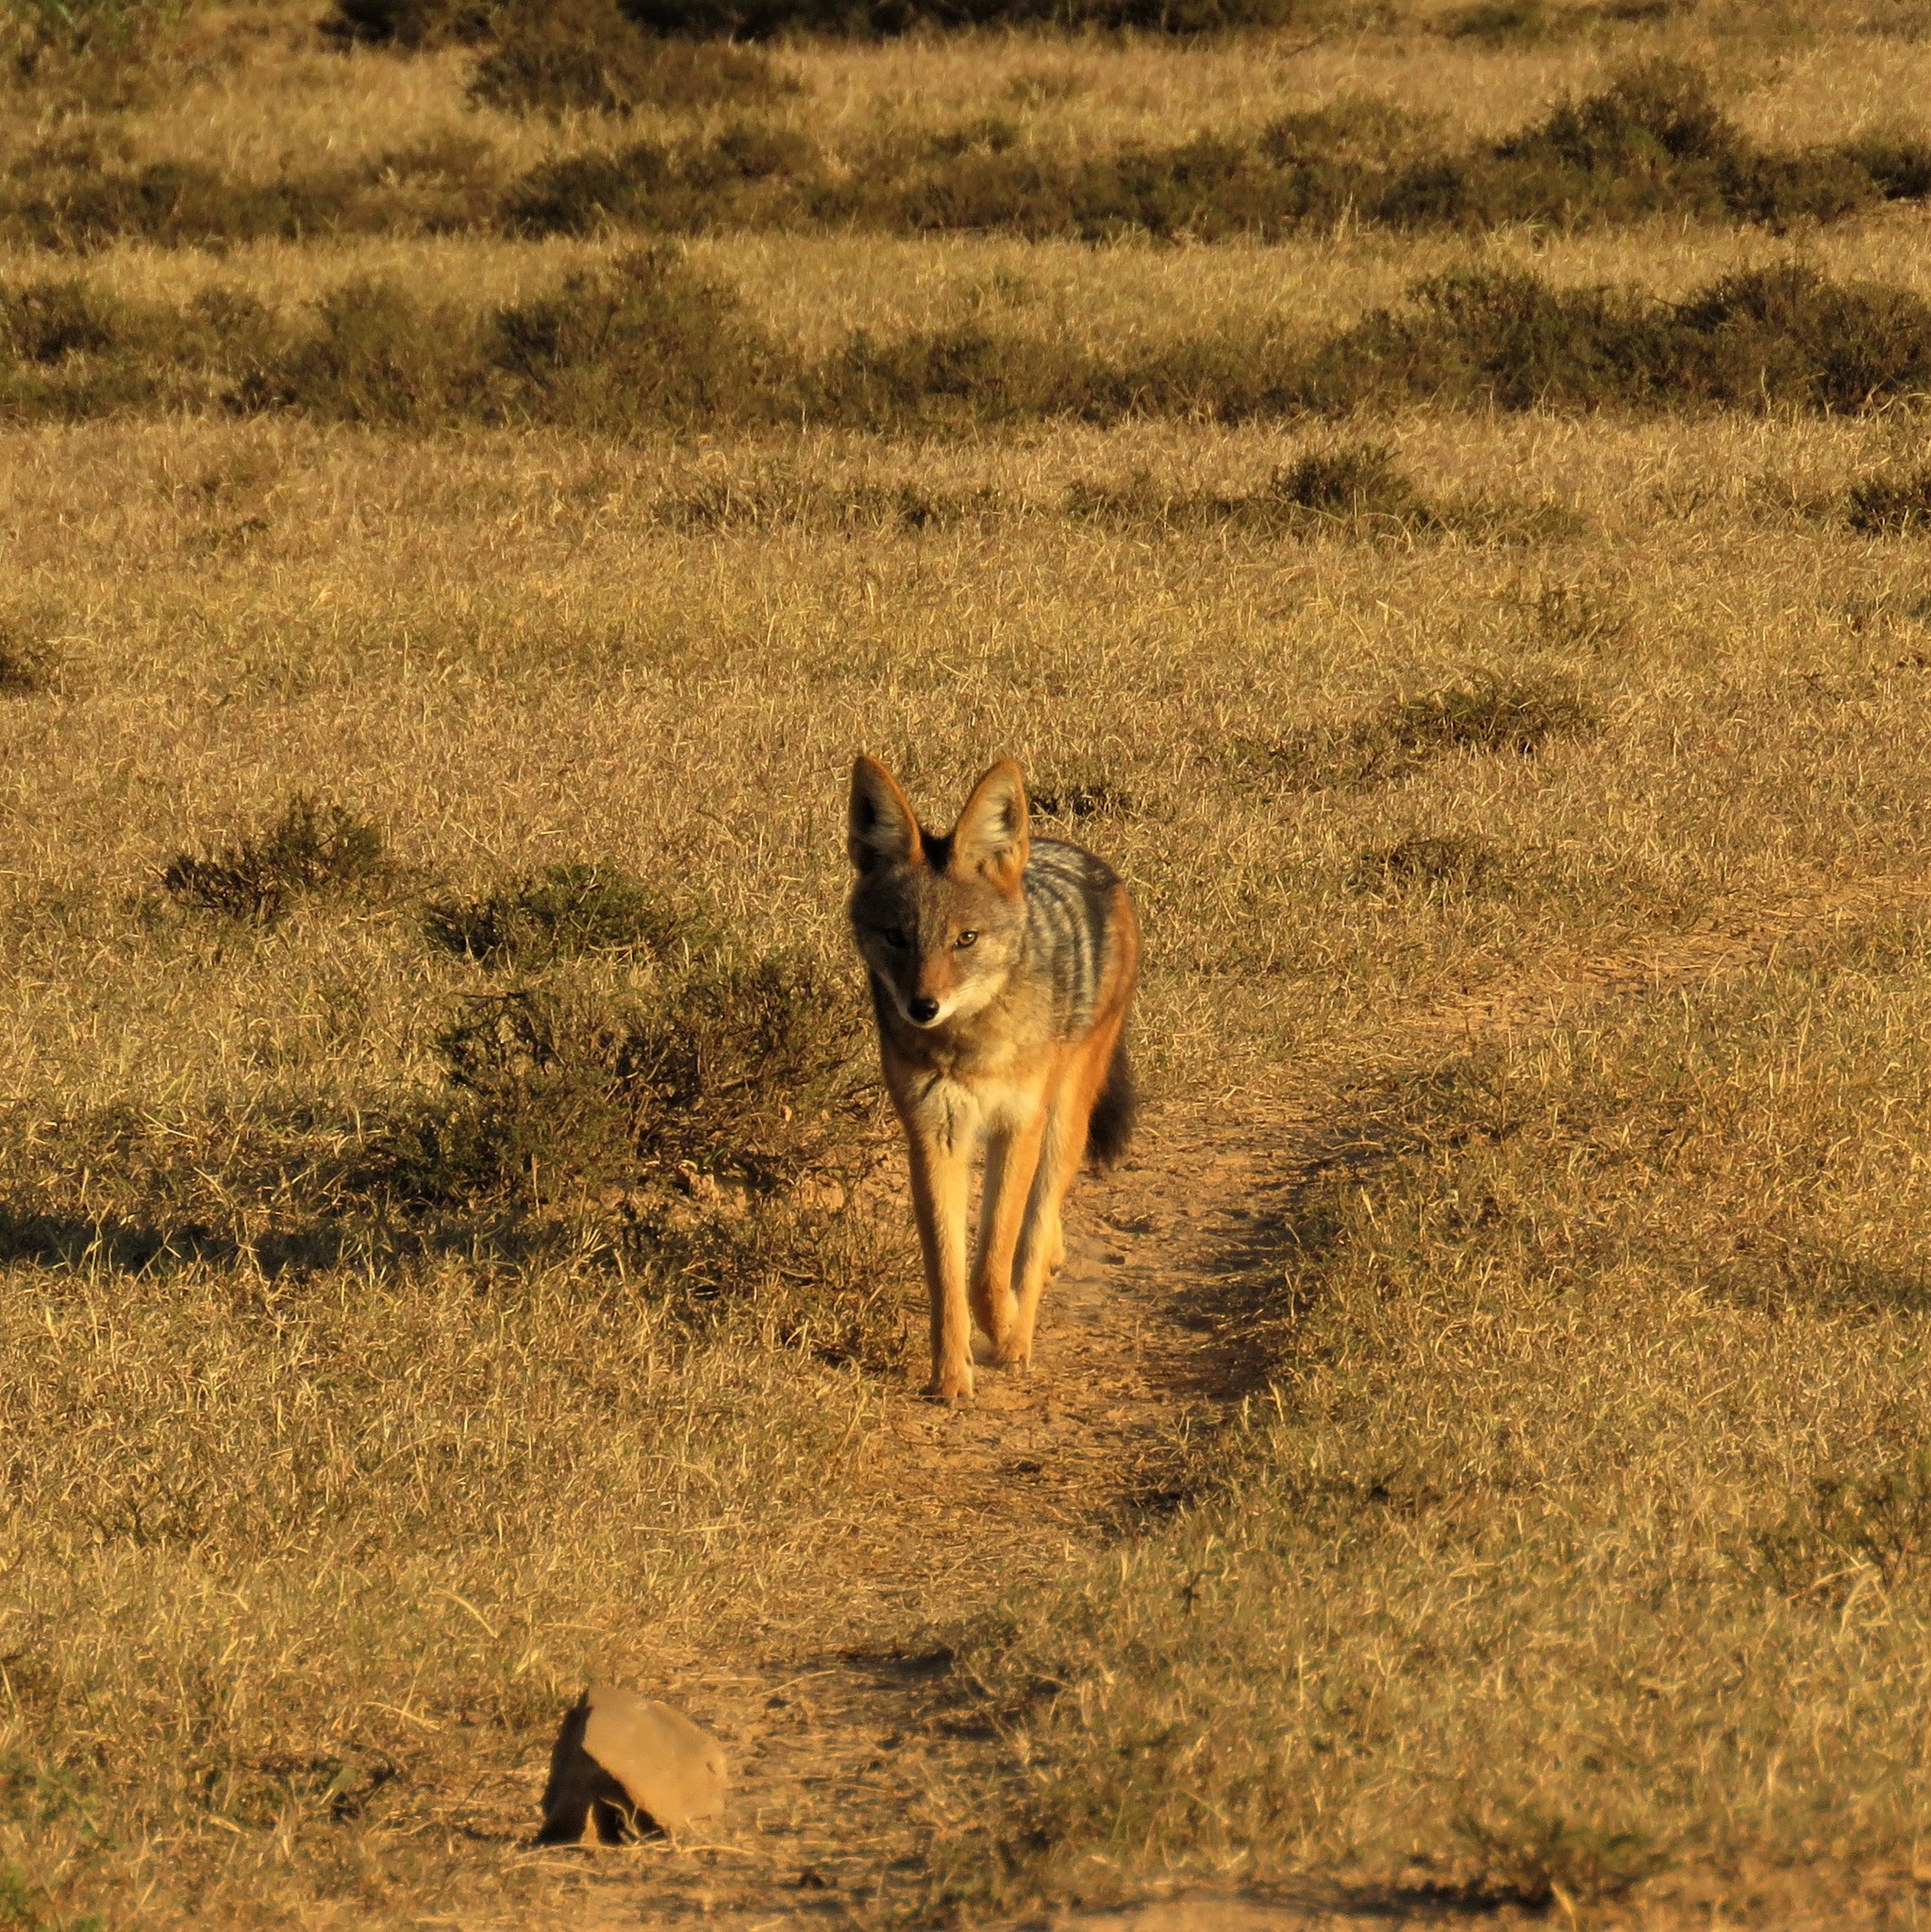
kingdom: Animalia
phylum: Chordata
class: Mammalia
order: Carnivora
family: Canidae
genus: Lupulella
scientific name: Lupulella
